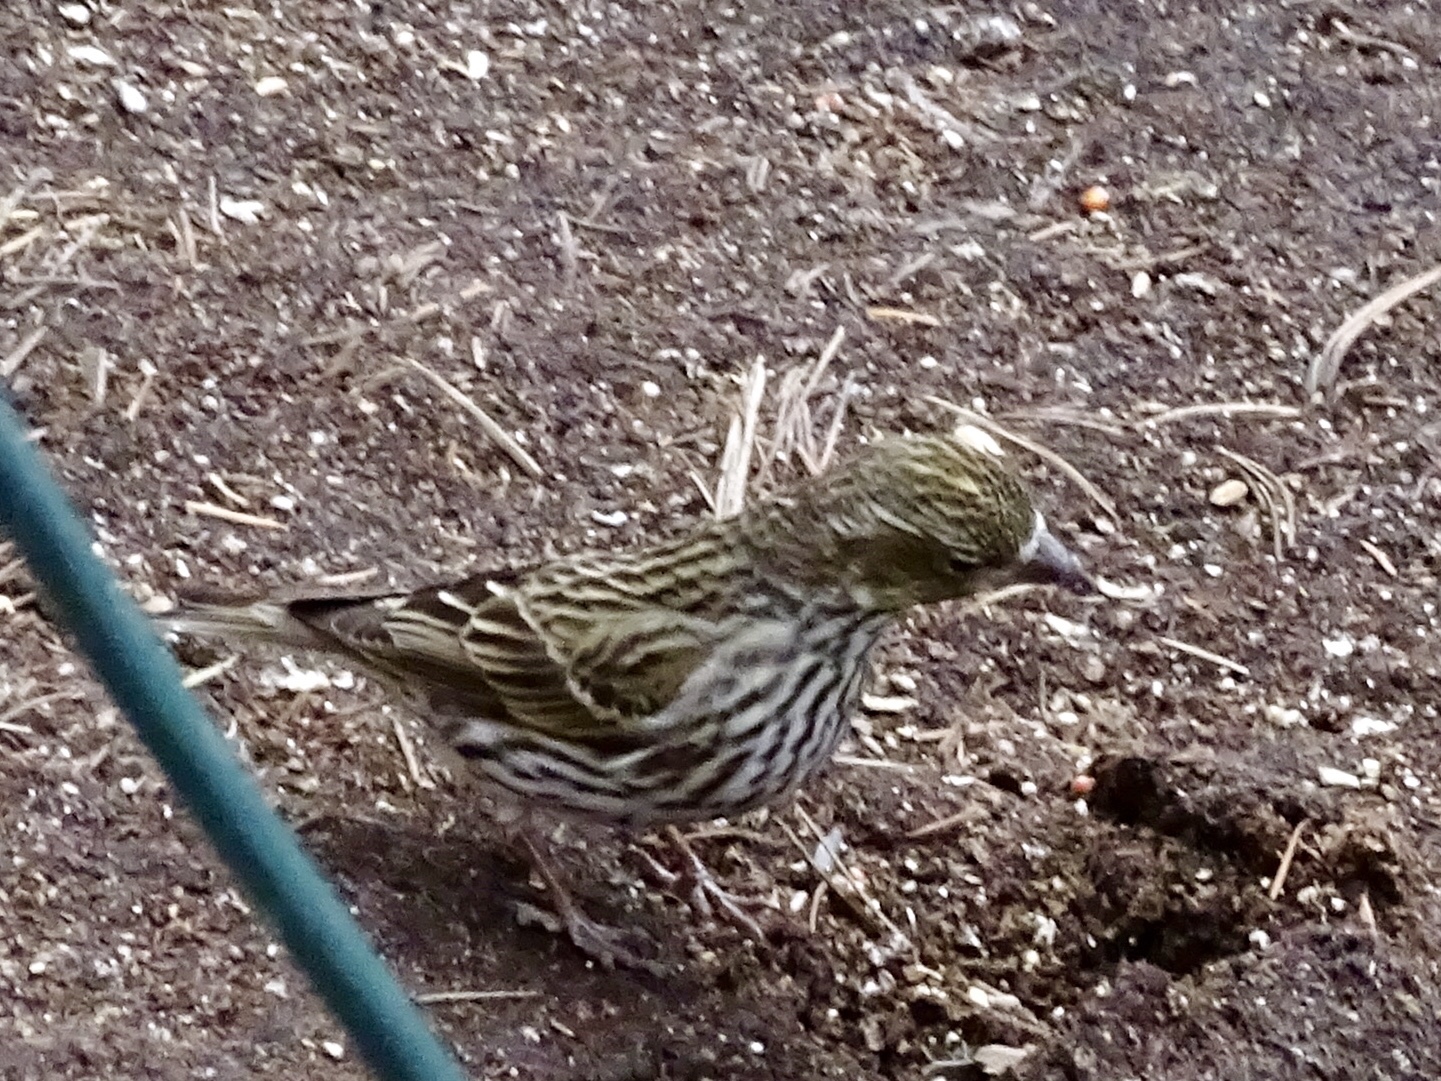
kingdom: Animalia
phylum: Chordata
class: Aves
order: Passeriformes
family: Fringillidae
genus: Spinus
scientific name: Spinus pinus
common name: Pine siskin
